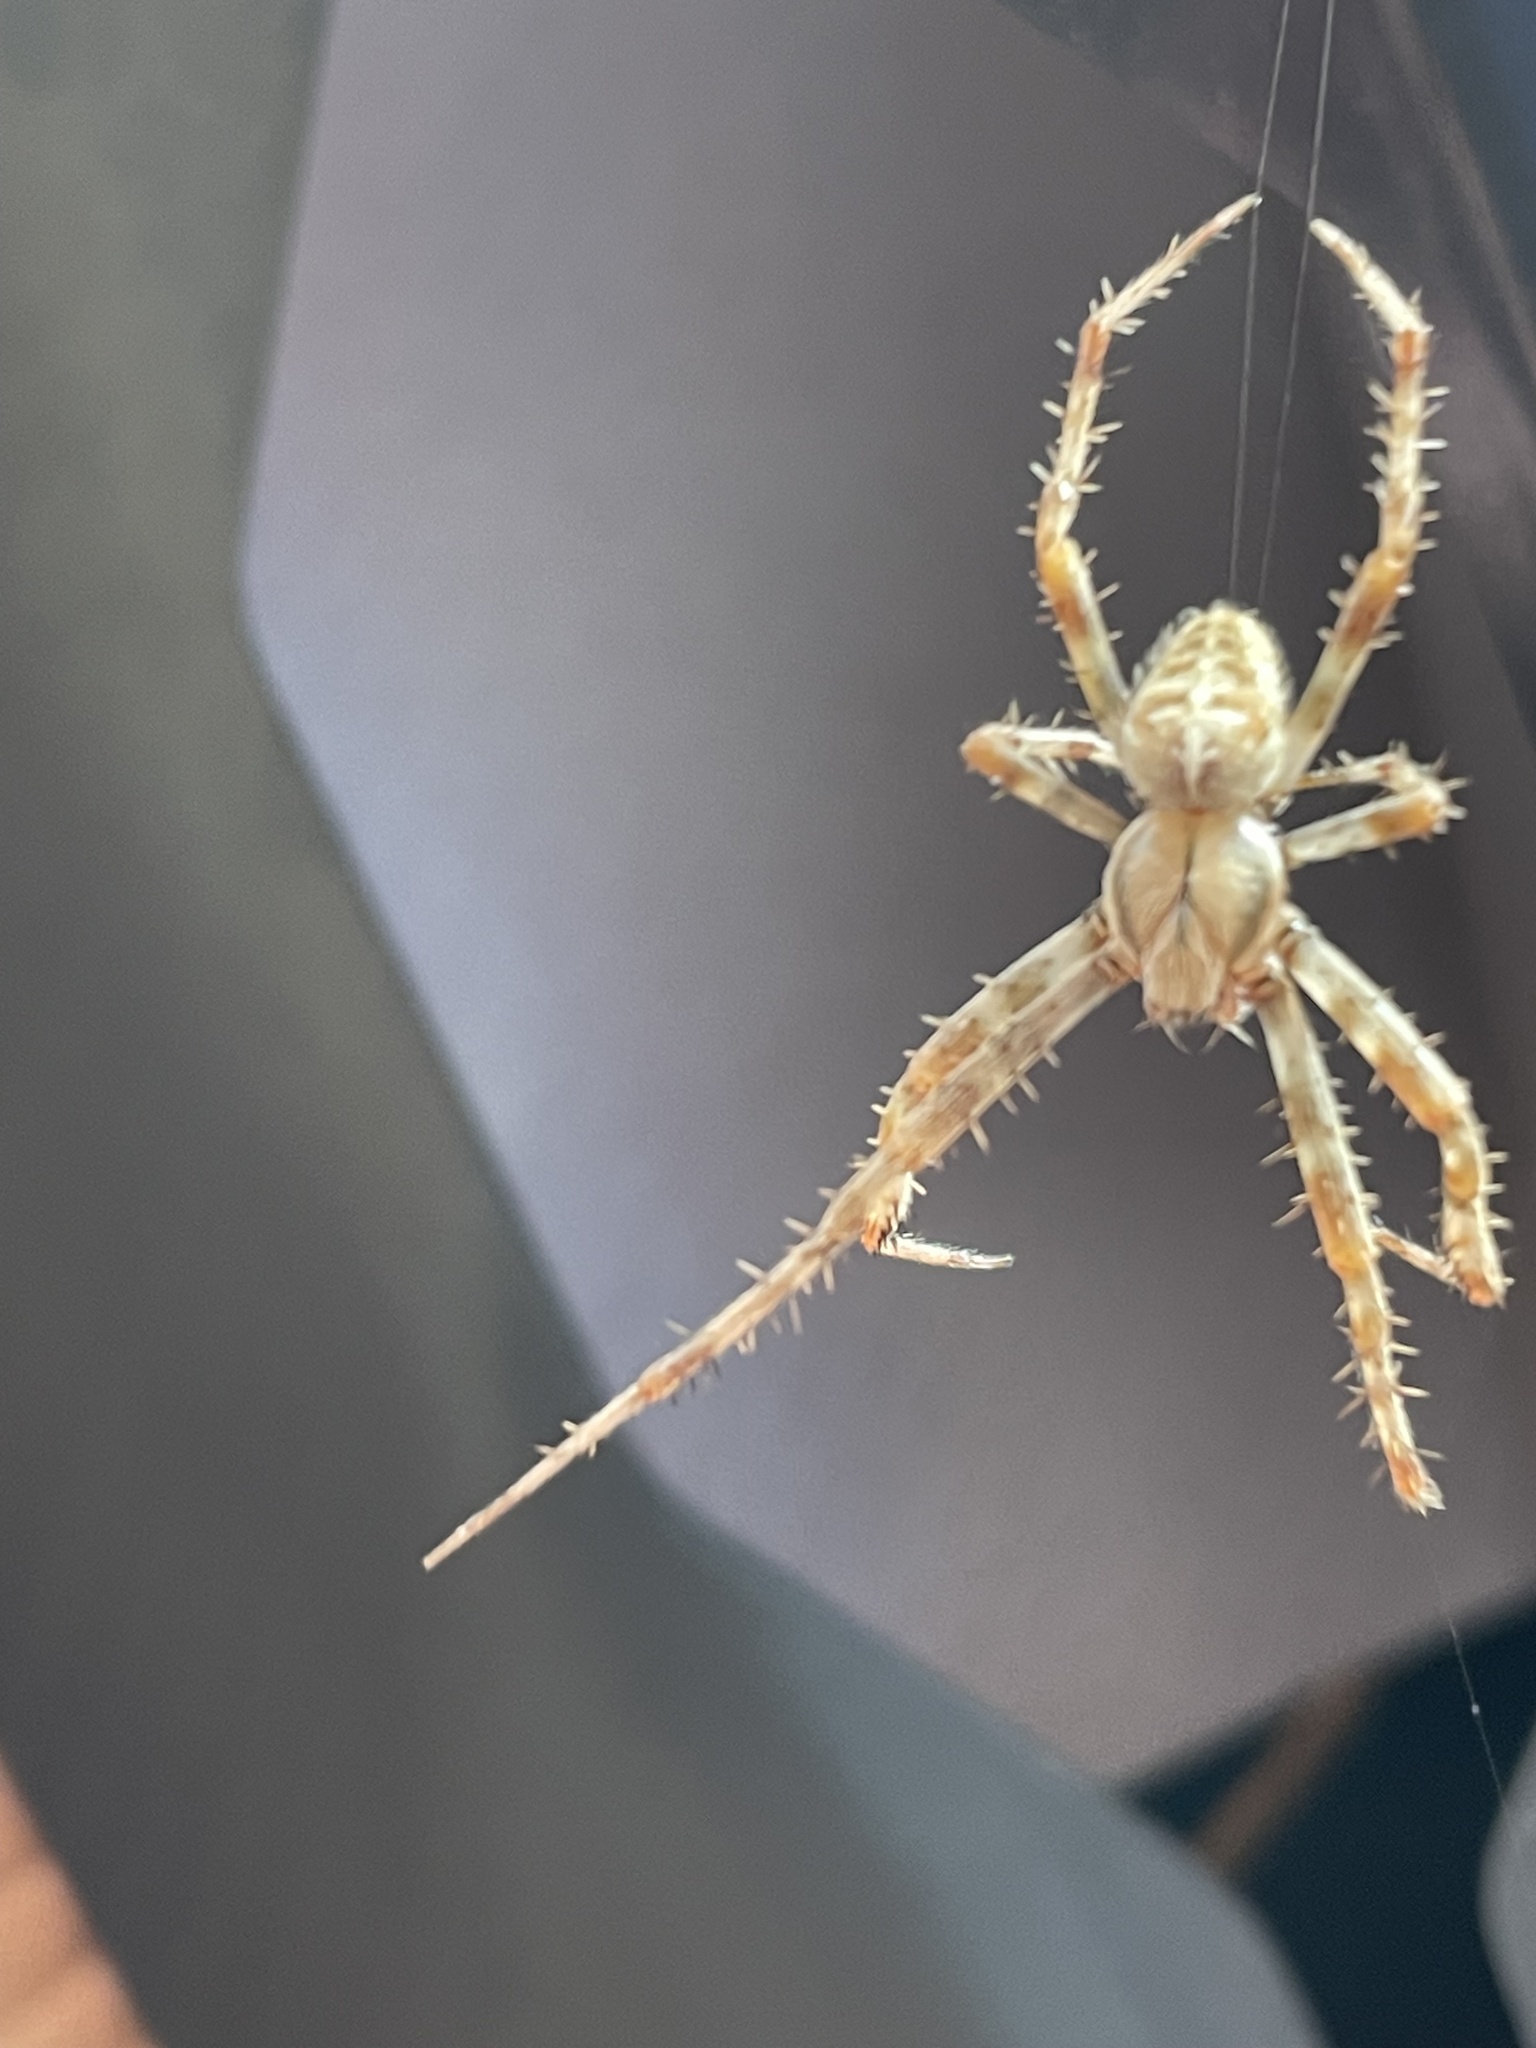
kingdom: Animalia
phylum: Arthropoda
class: Arachnida
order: Araneae
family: Araneidae
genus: Araneus
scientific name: Araneus diadematus
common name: Cross orbweaver
